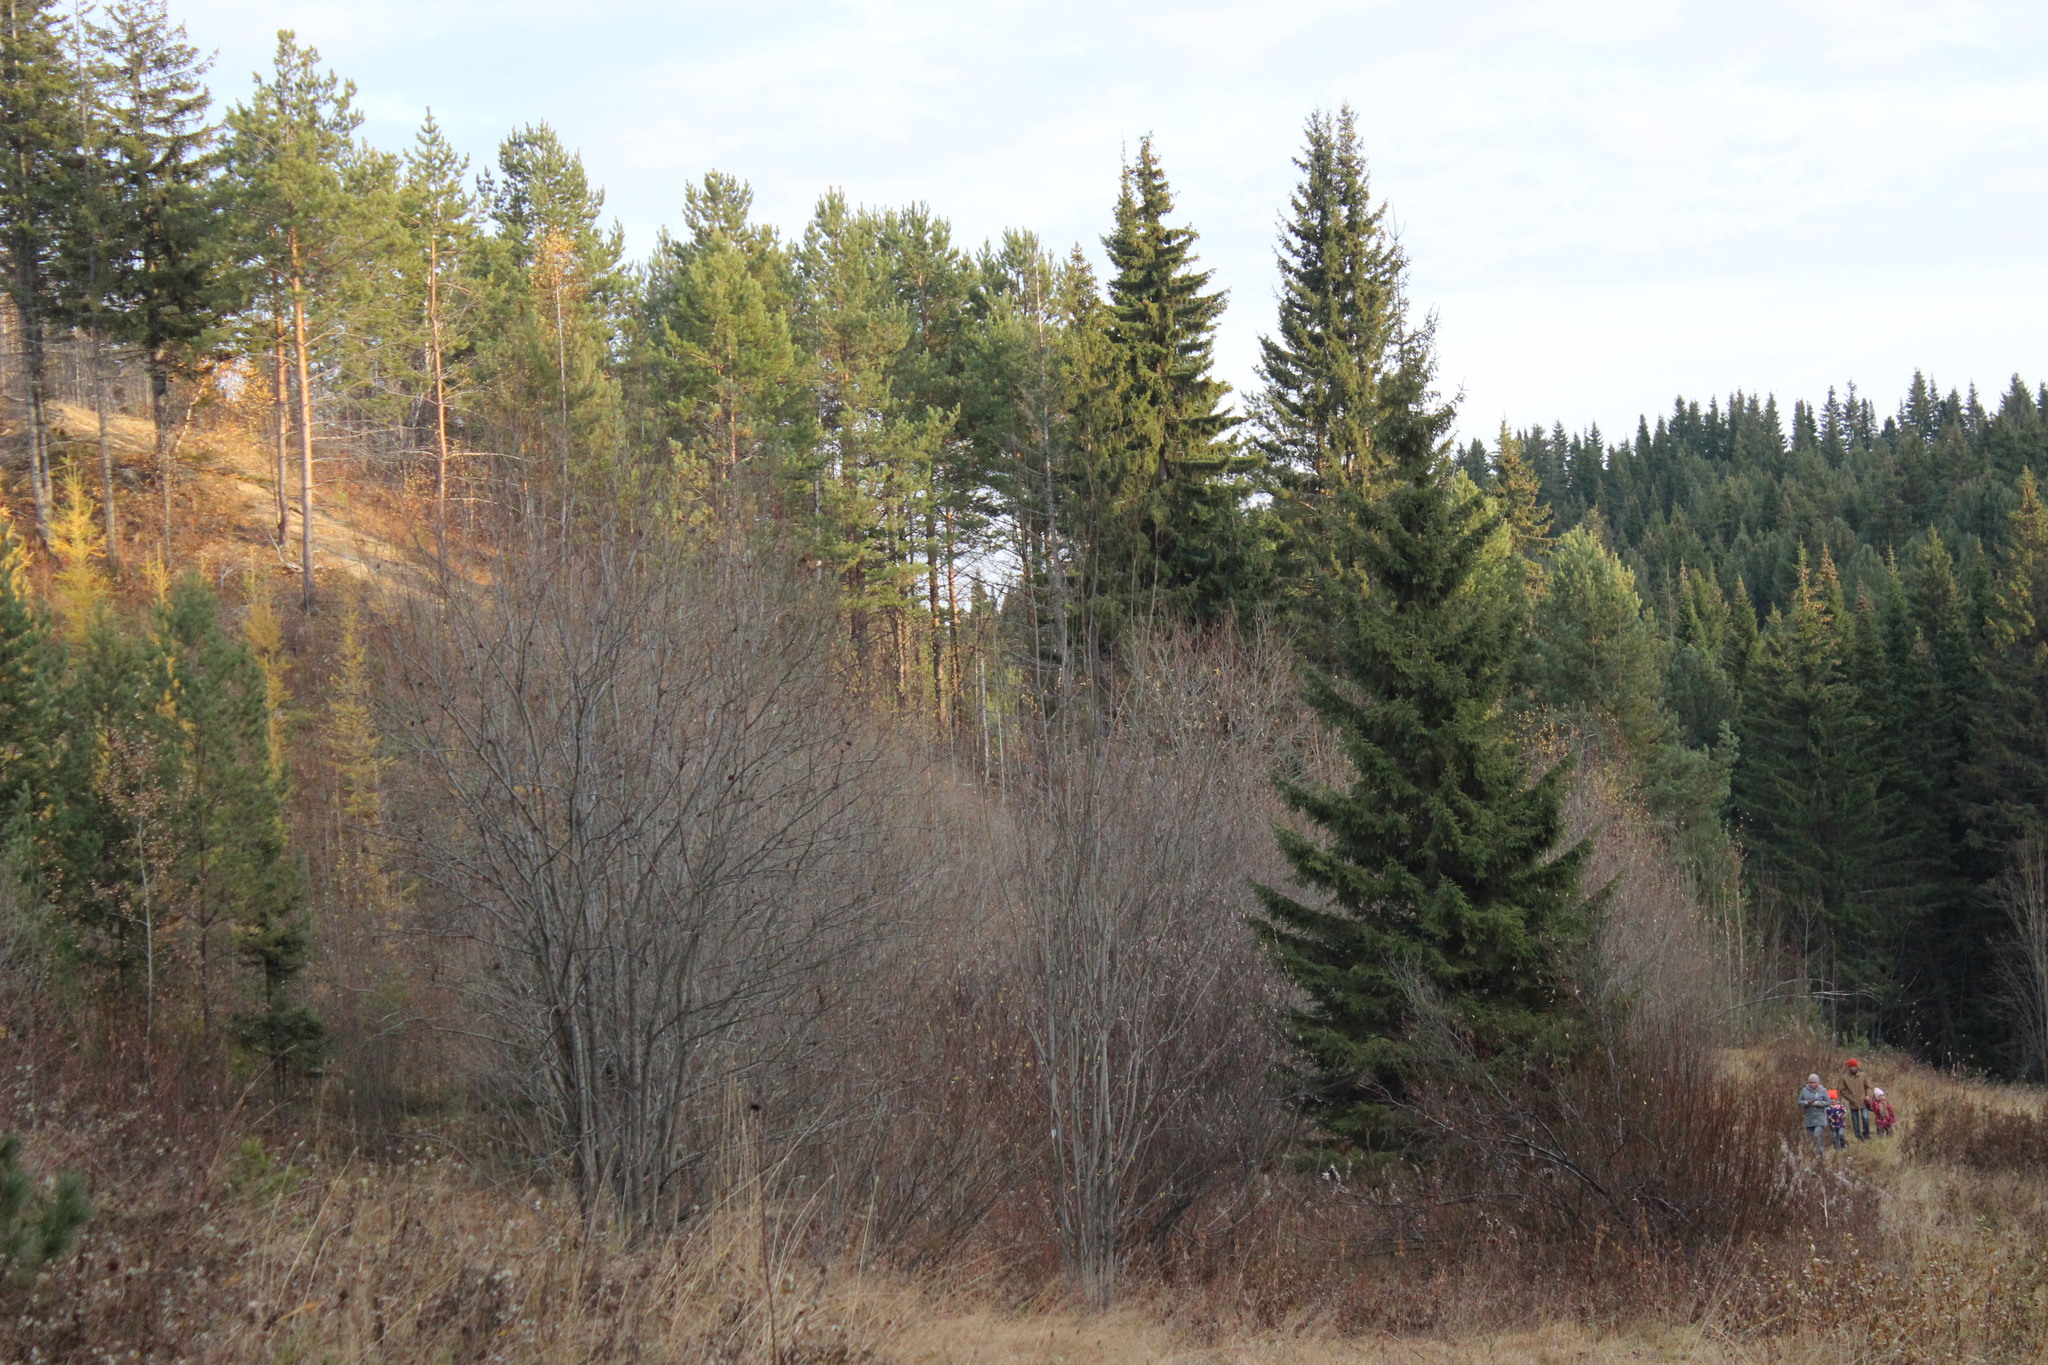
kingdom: Plantae
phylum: Tracheophyta
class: Pinopsida
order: Pinales
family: Pinaceae
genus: Picea
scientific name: Picea obovata
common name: Siberian spruce
